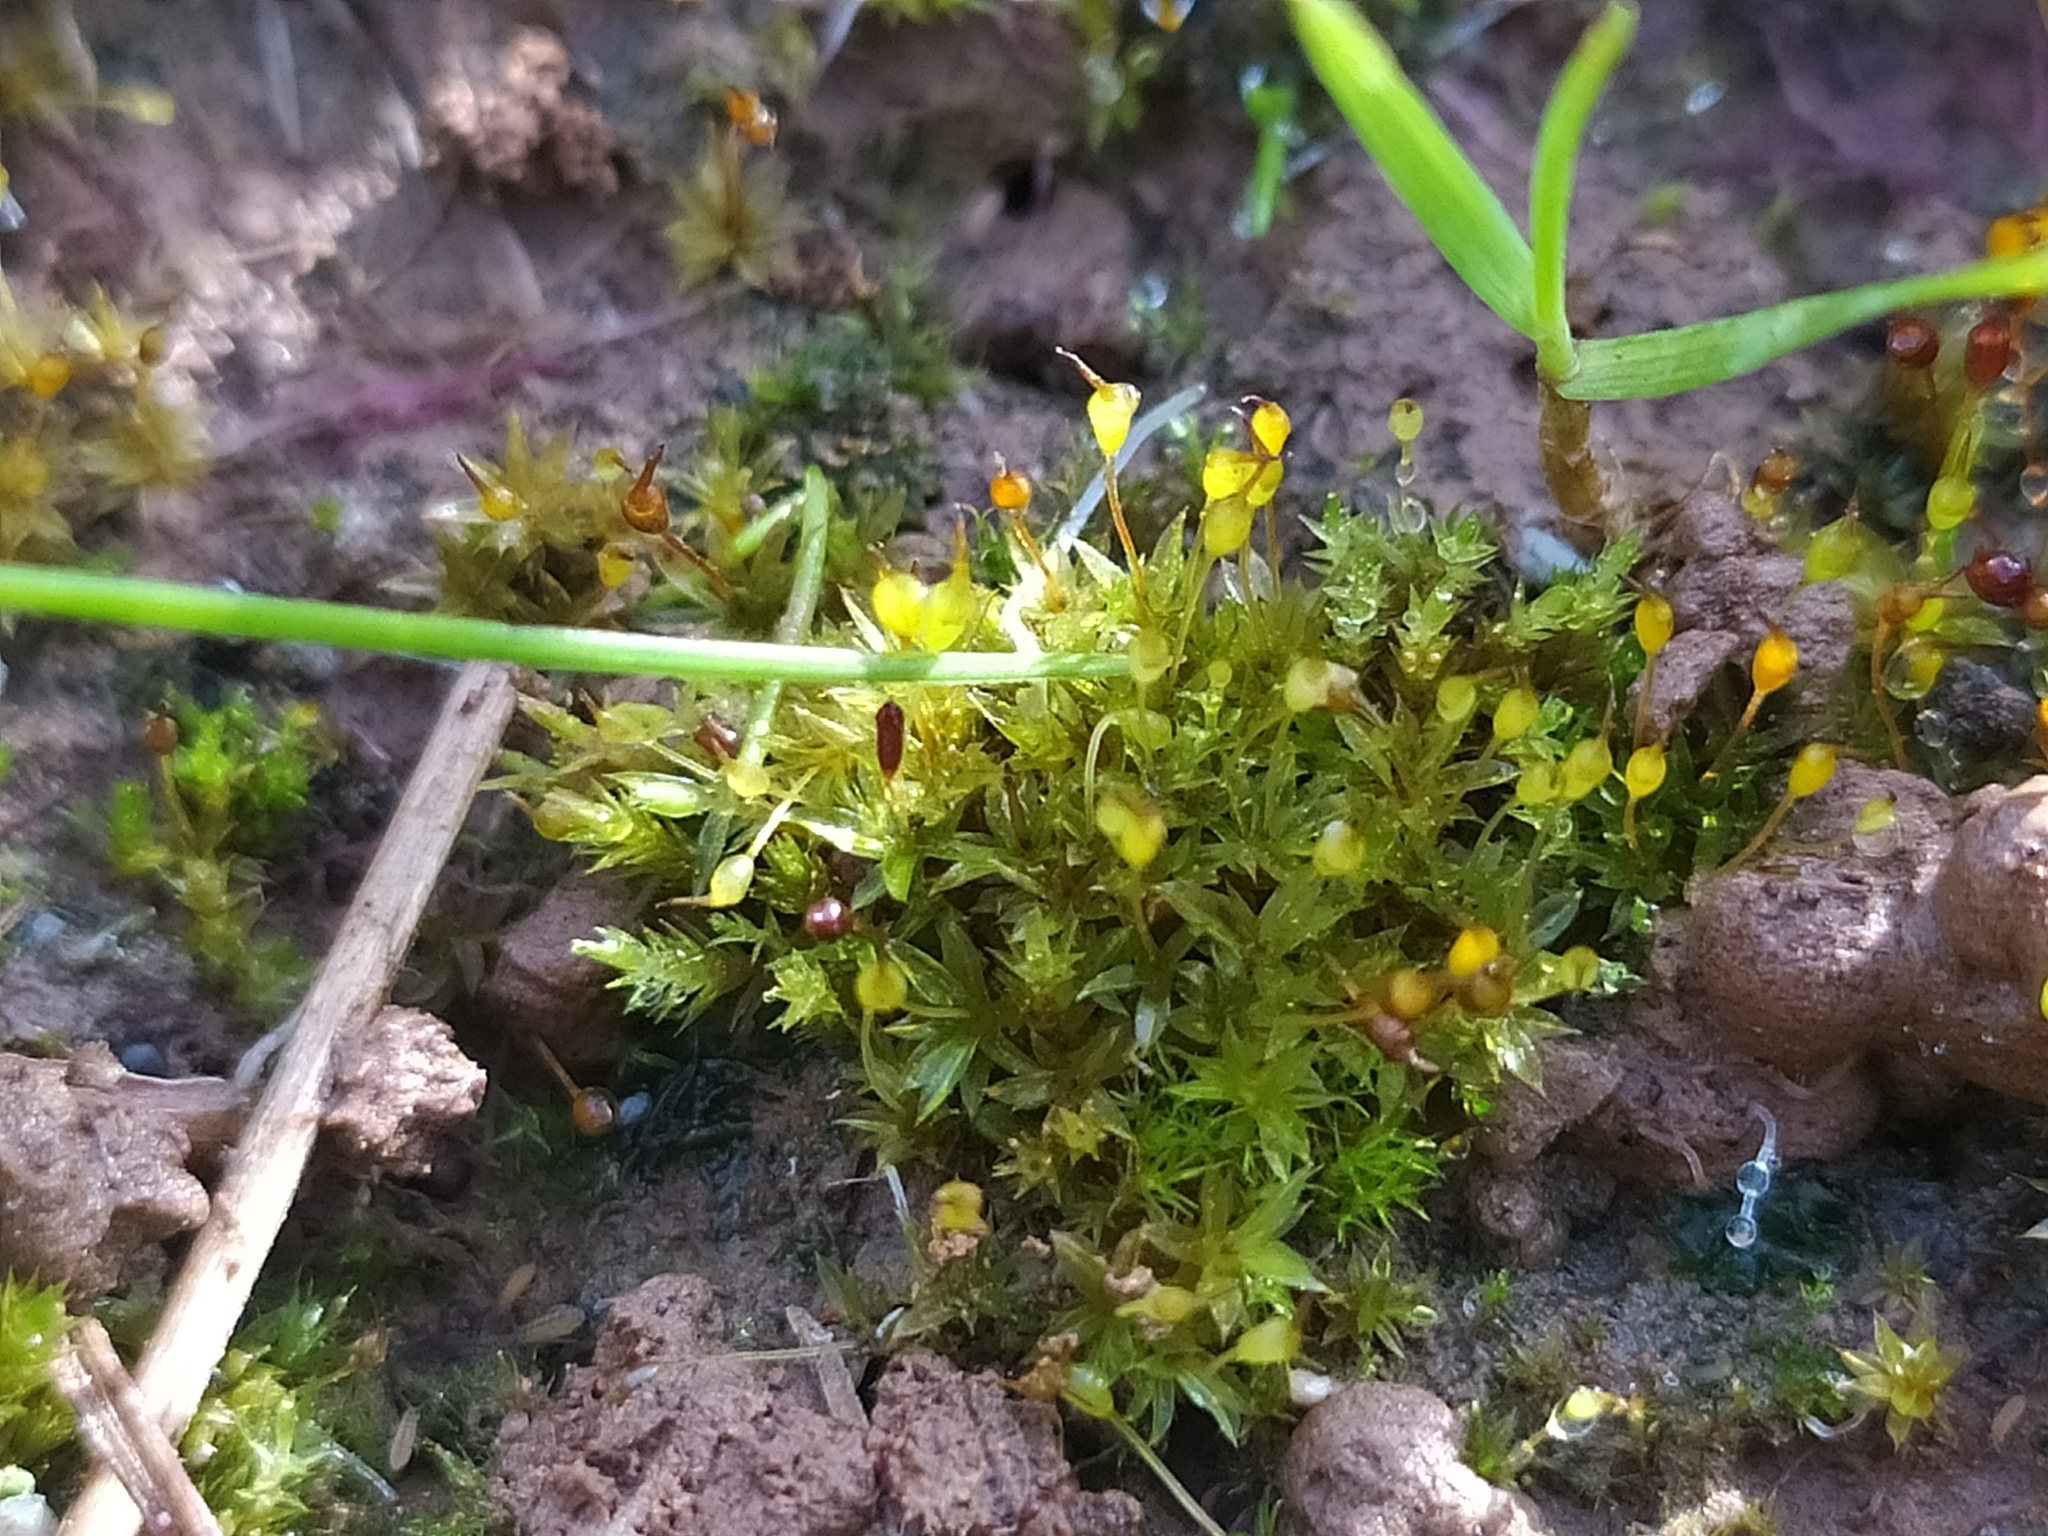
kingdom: Plantae
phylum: Bryophyta
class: Bryopsida
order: Pottiales
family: Pottiaceae
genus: Tortula
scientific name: Tortula truncata
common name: Truncated screw moss
